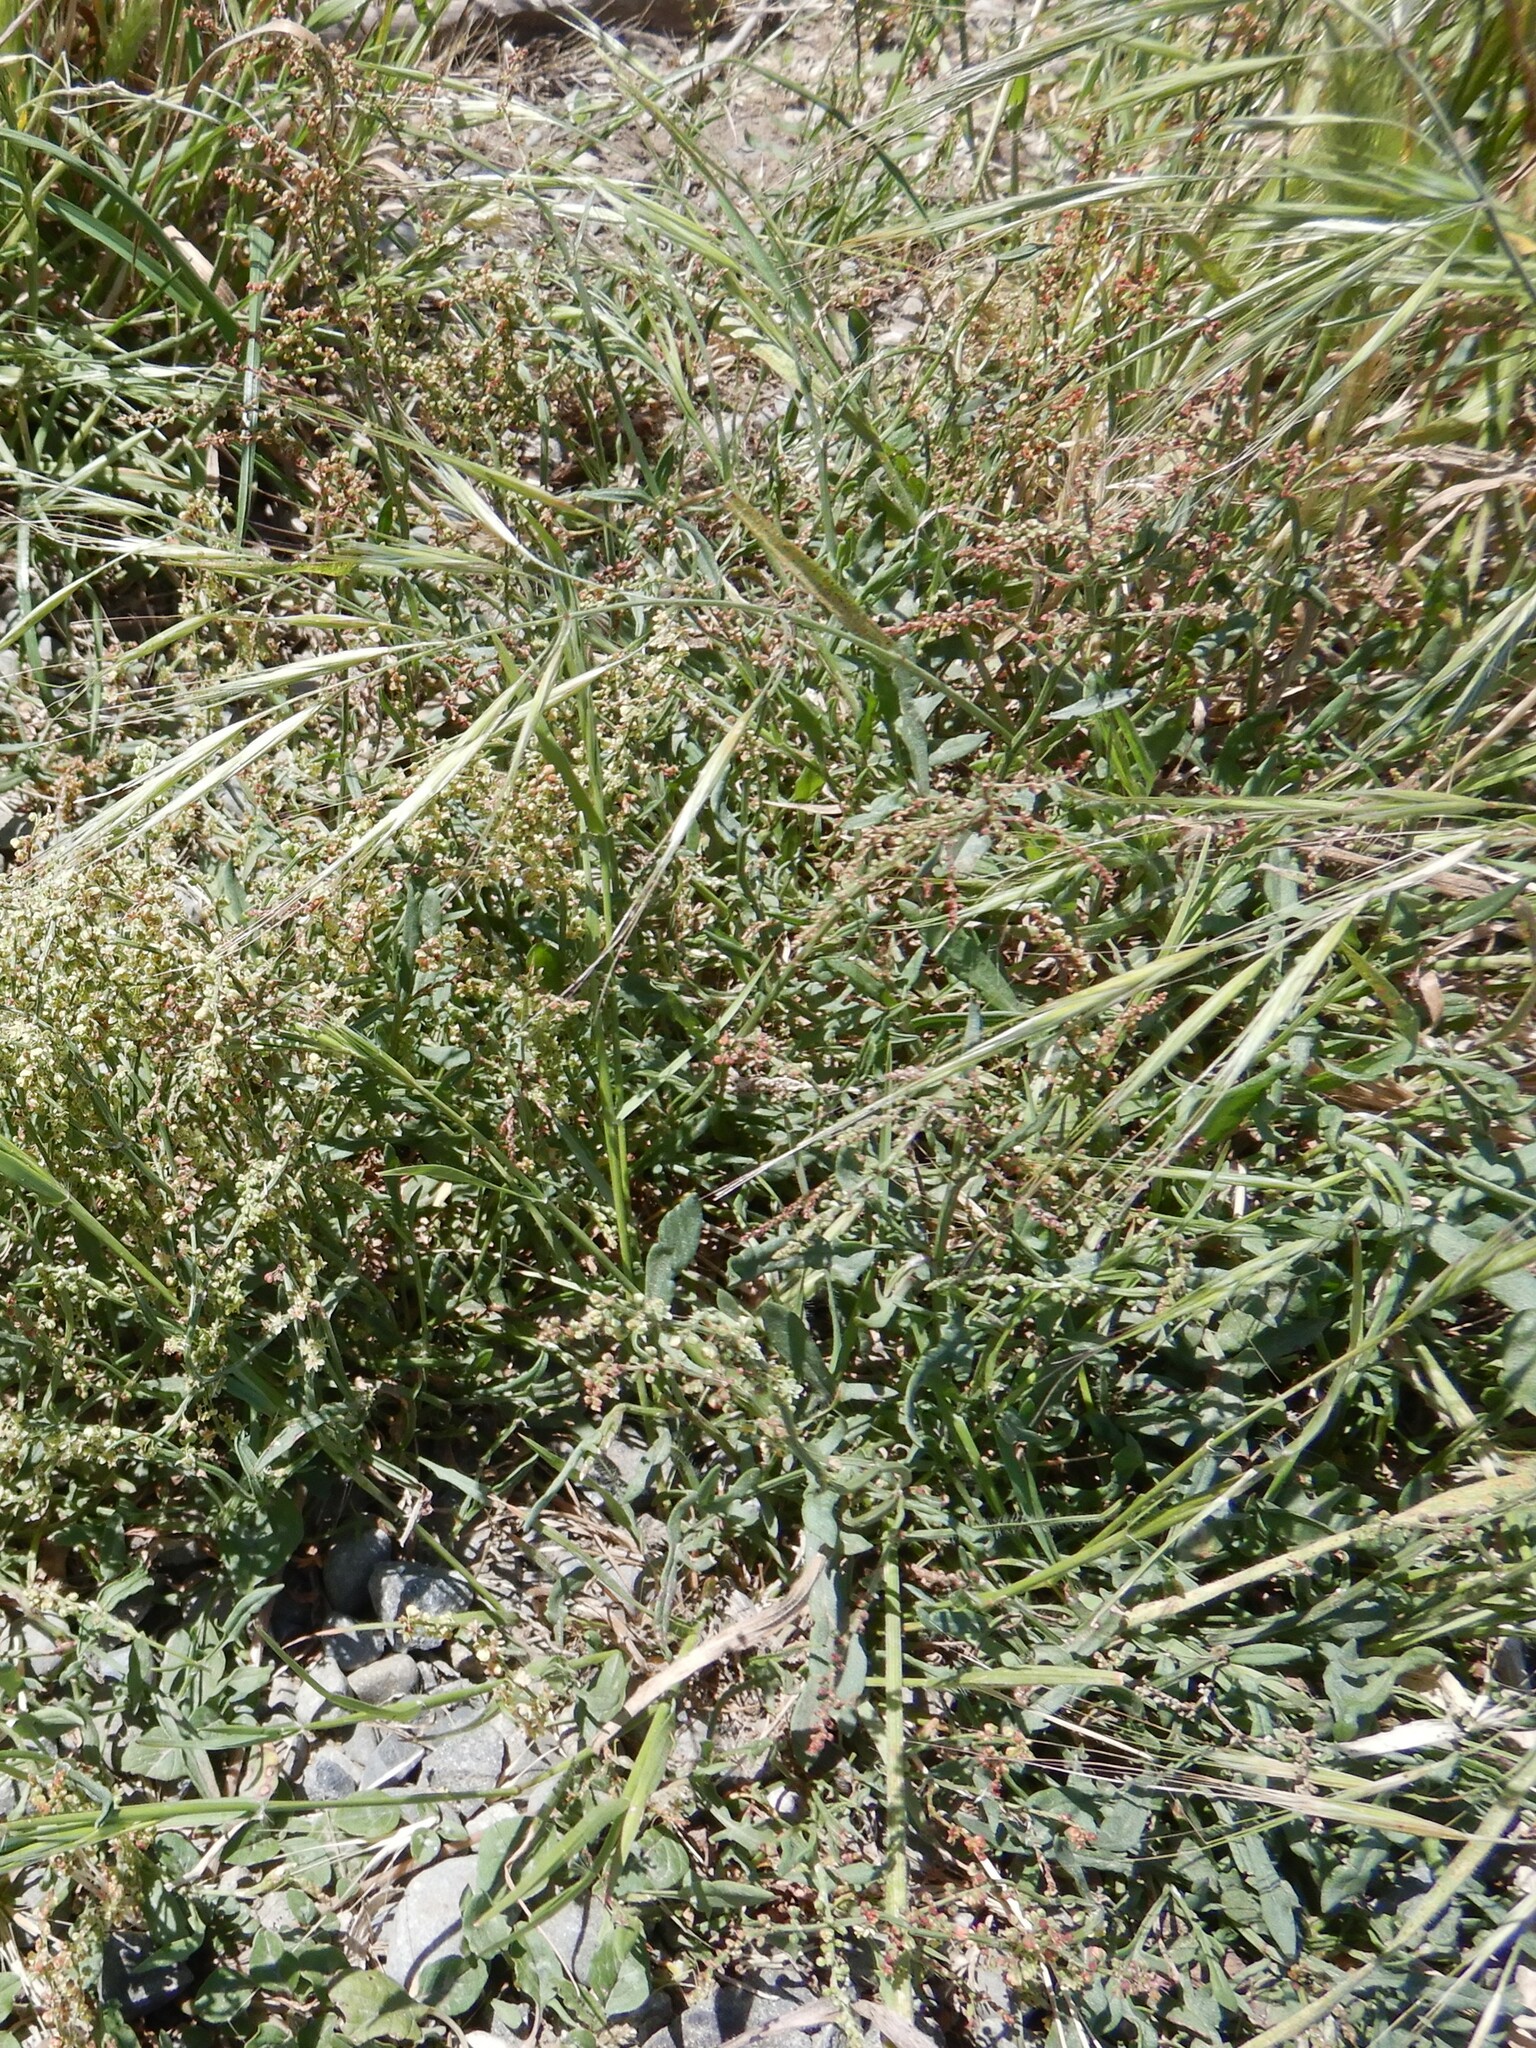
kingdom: Plantae
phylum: Tracheophyta
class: Liliopsida
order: Poales
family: Poaceae
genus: Bromus
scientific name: Bromus diandrus
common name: Ripgut brome
